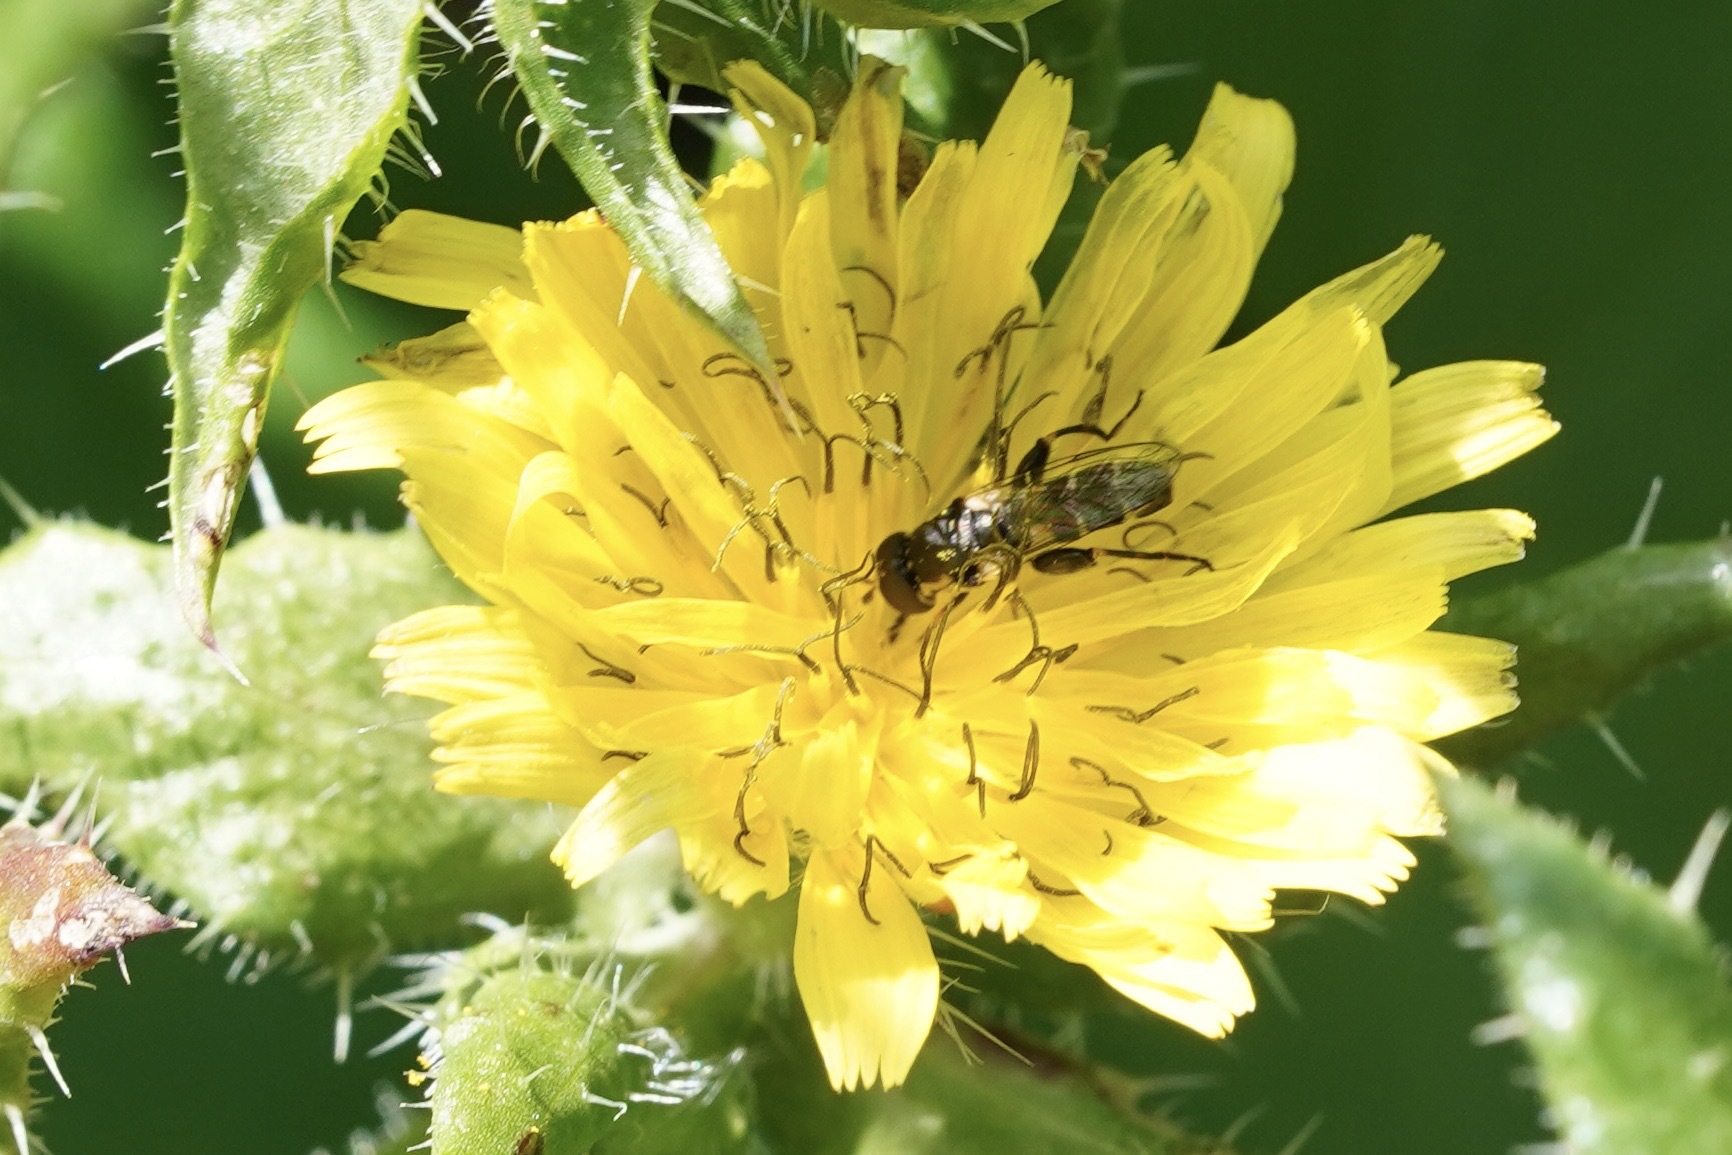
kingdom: Animalia
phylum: Arthropoda
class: Insecta
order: Diptera
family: Syrphidae
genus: Syritta
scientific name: Syritta pipiens
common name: Hover fly
